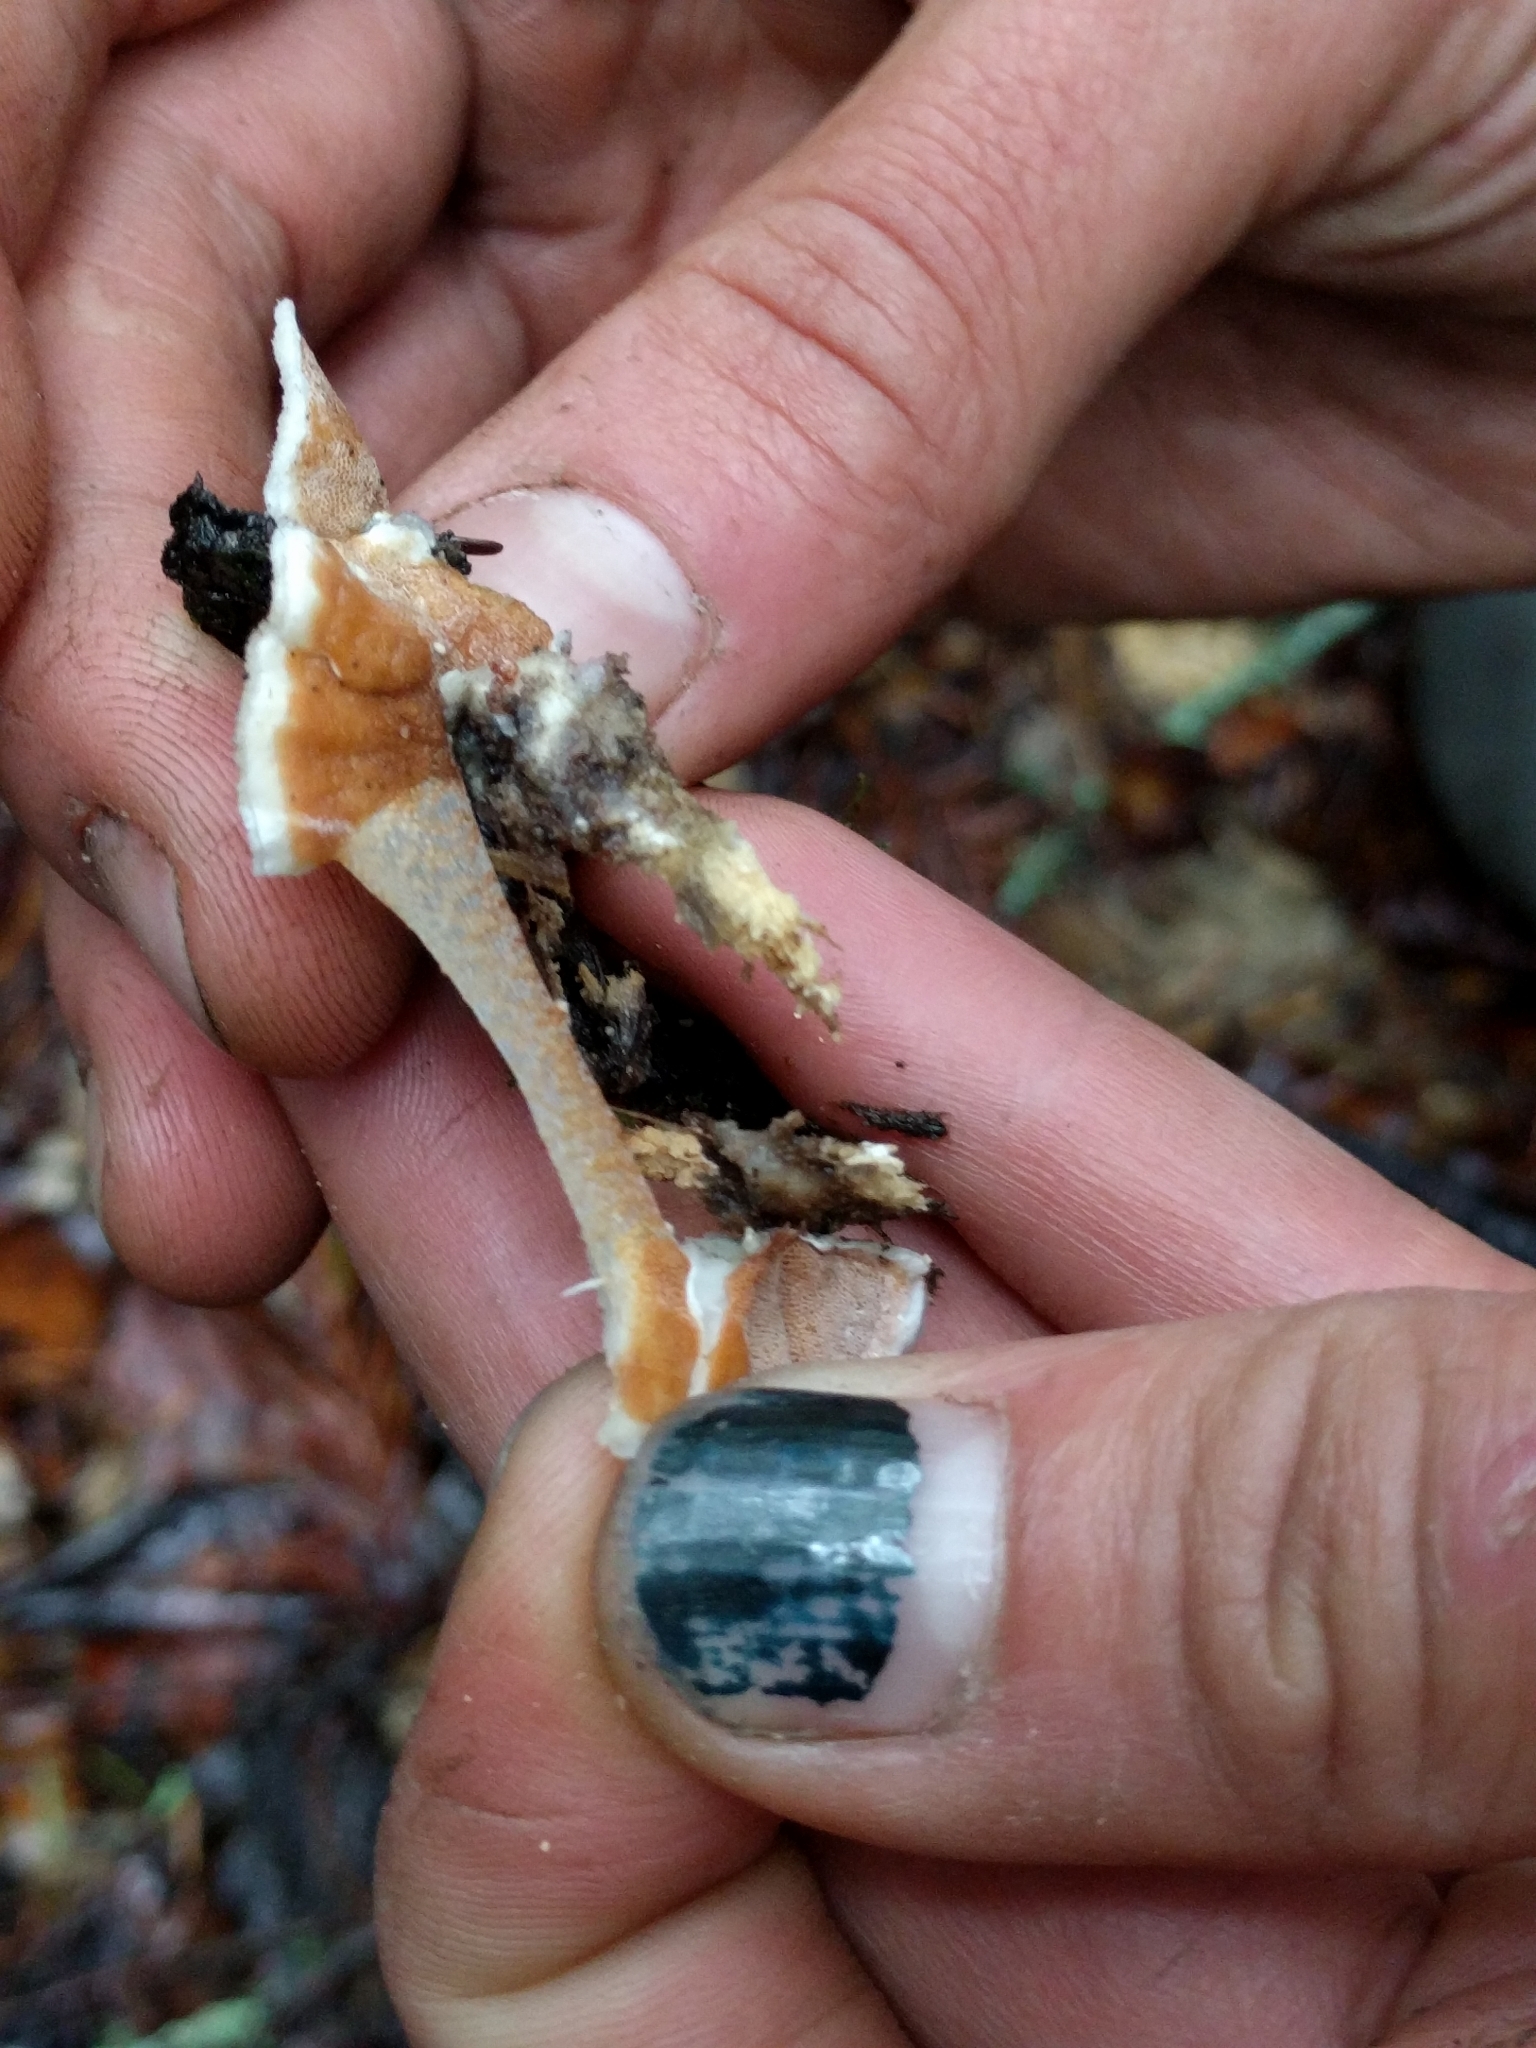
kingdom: Fungi
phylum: Basidiomycota
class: Agaricomycetes
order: Polyporales
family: Irpicaceae
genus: Vitreoporus
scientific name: Vitreoporus dichrous
